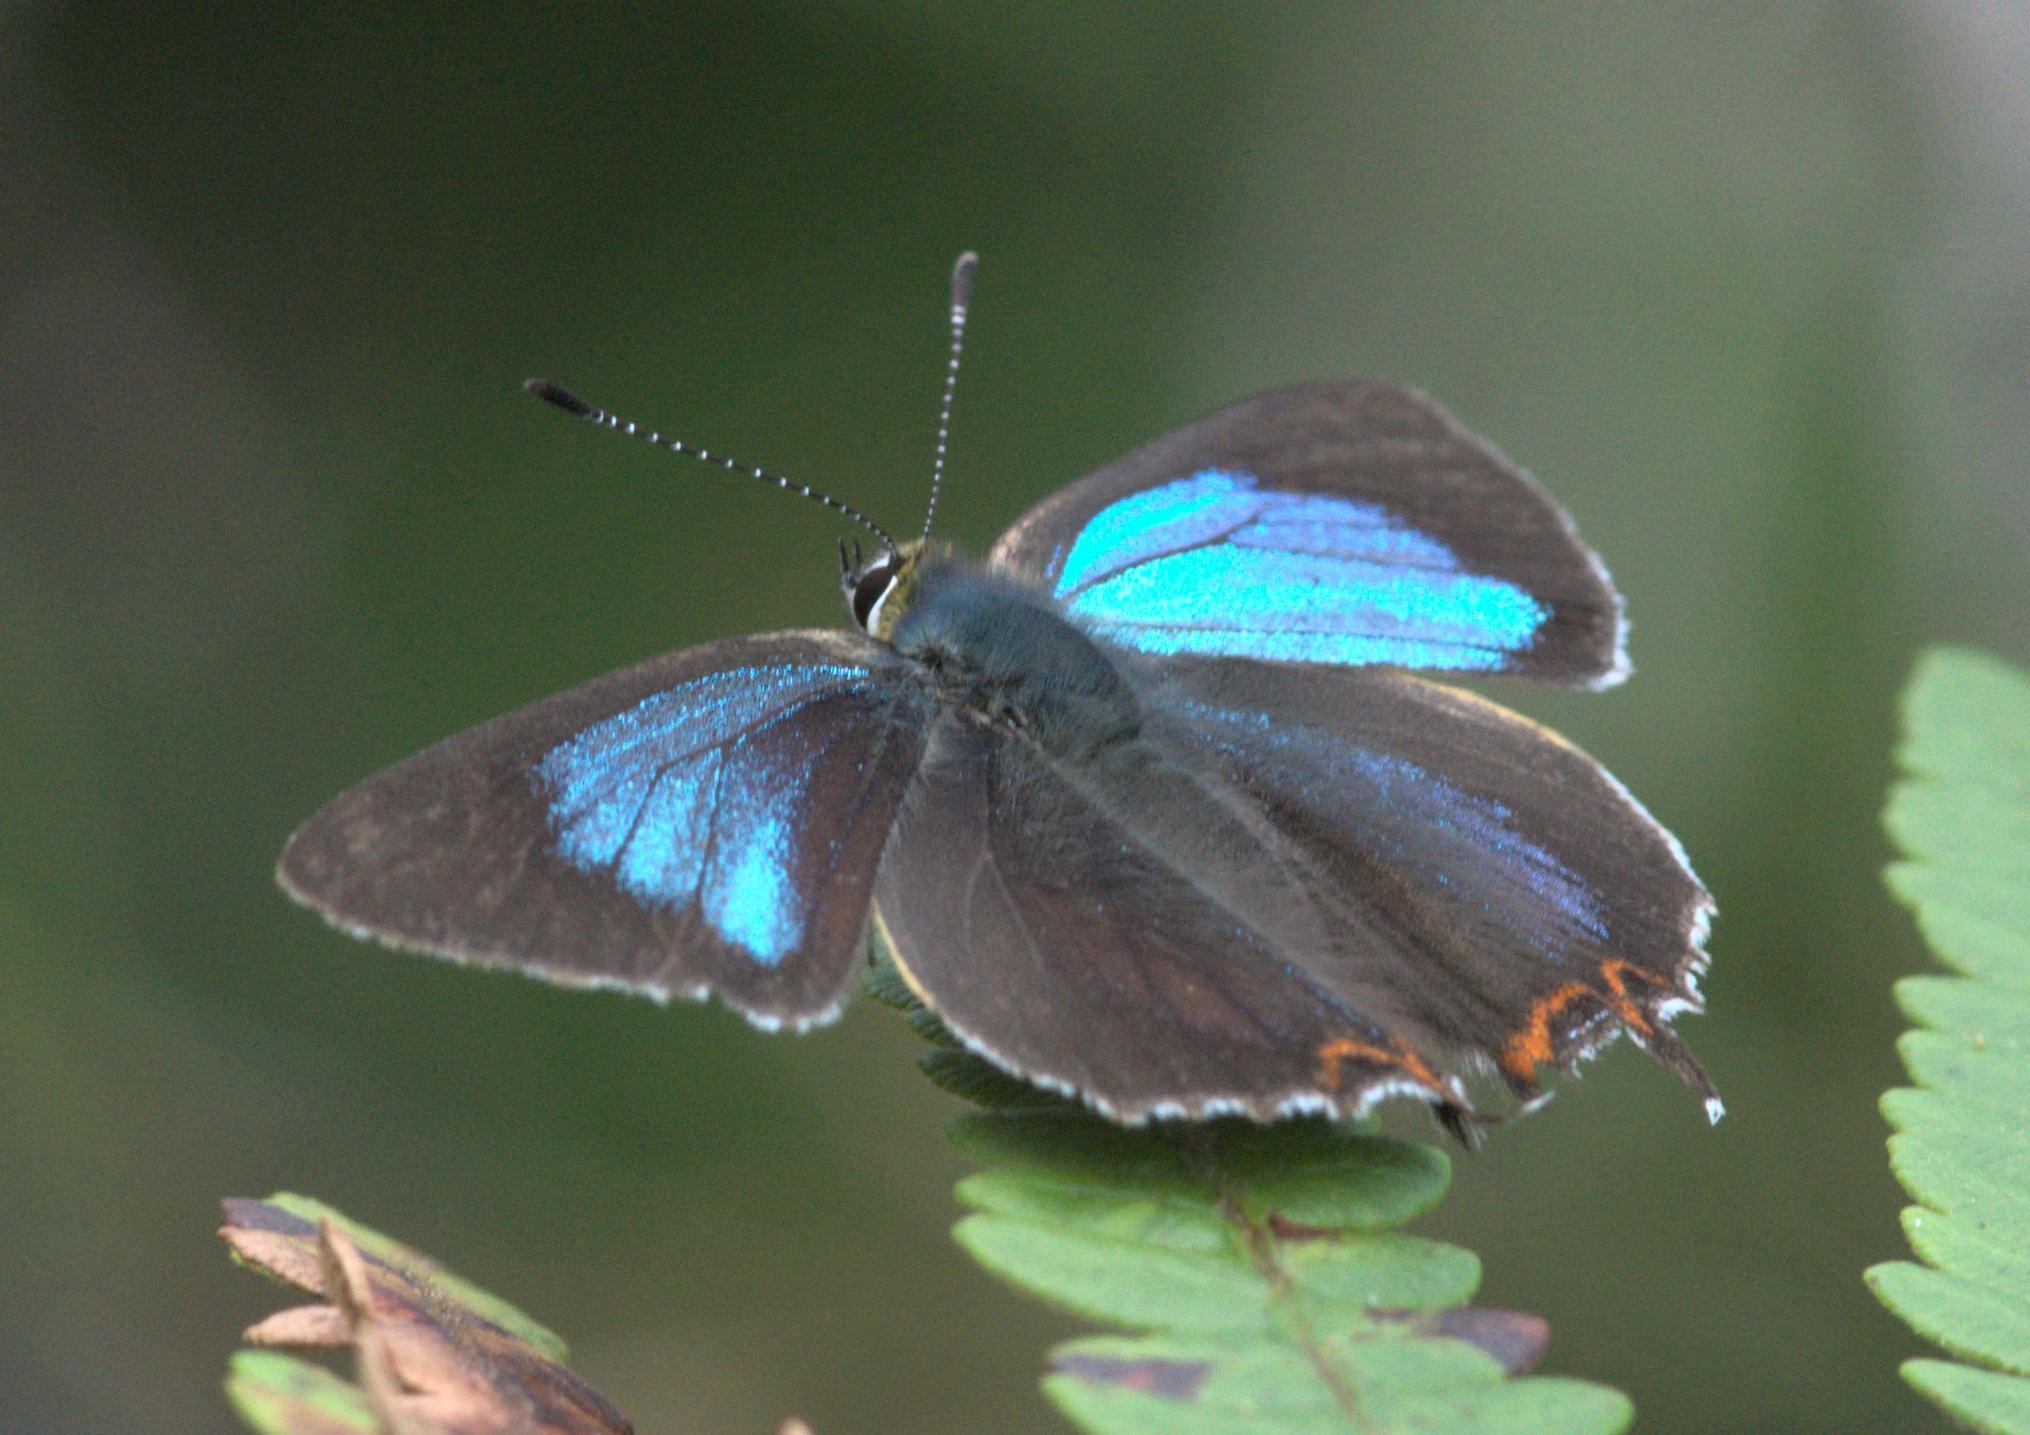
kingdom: Animalia
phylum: Arthropoda
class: Insecta
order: Lepidoptera
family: Lycaenidae
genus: Heliophorus
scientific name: Heliophorus
